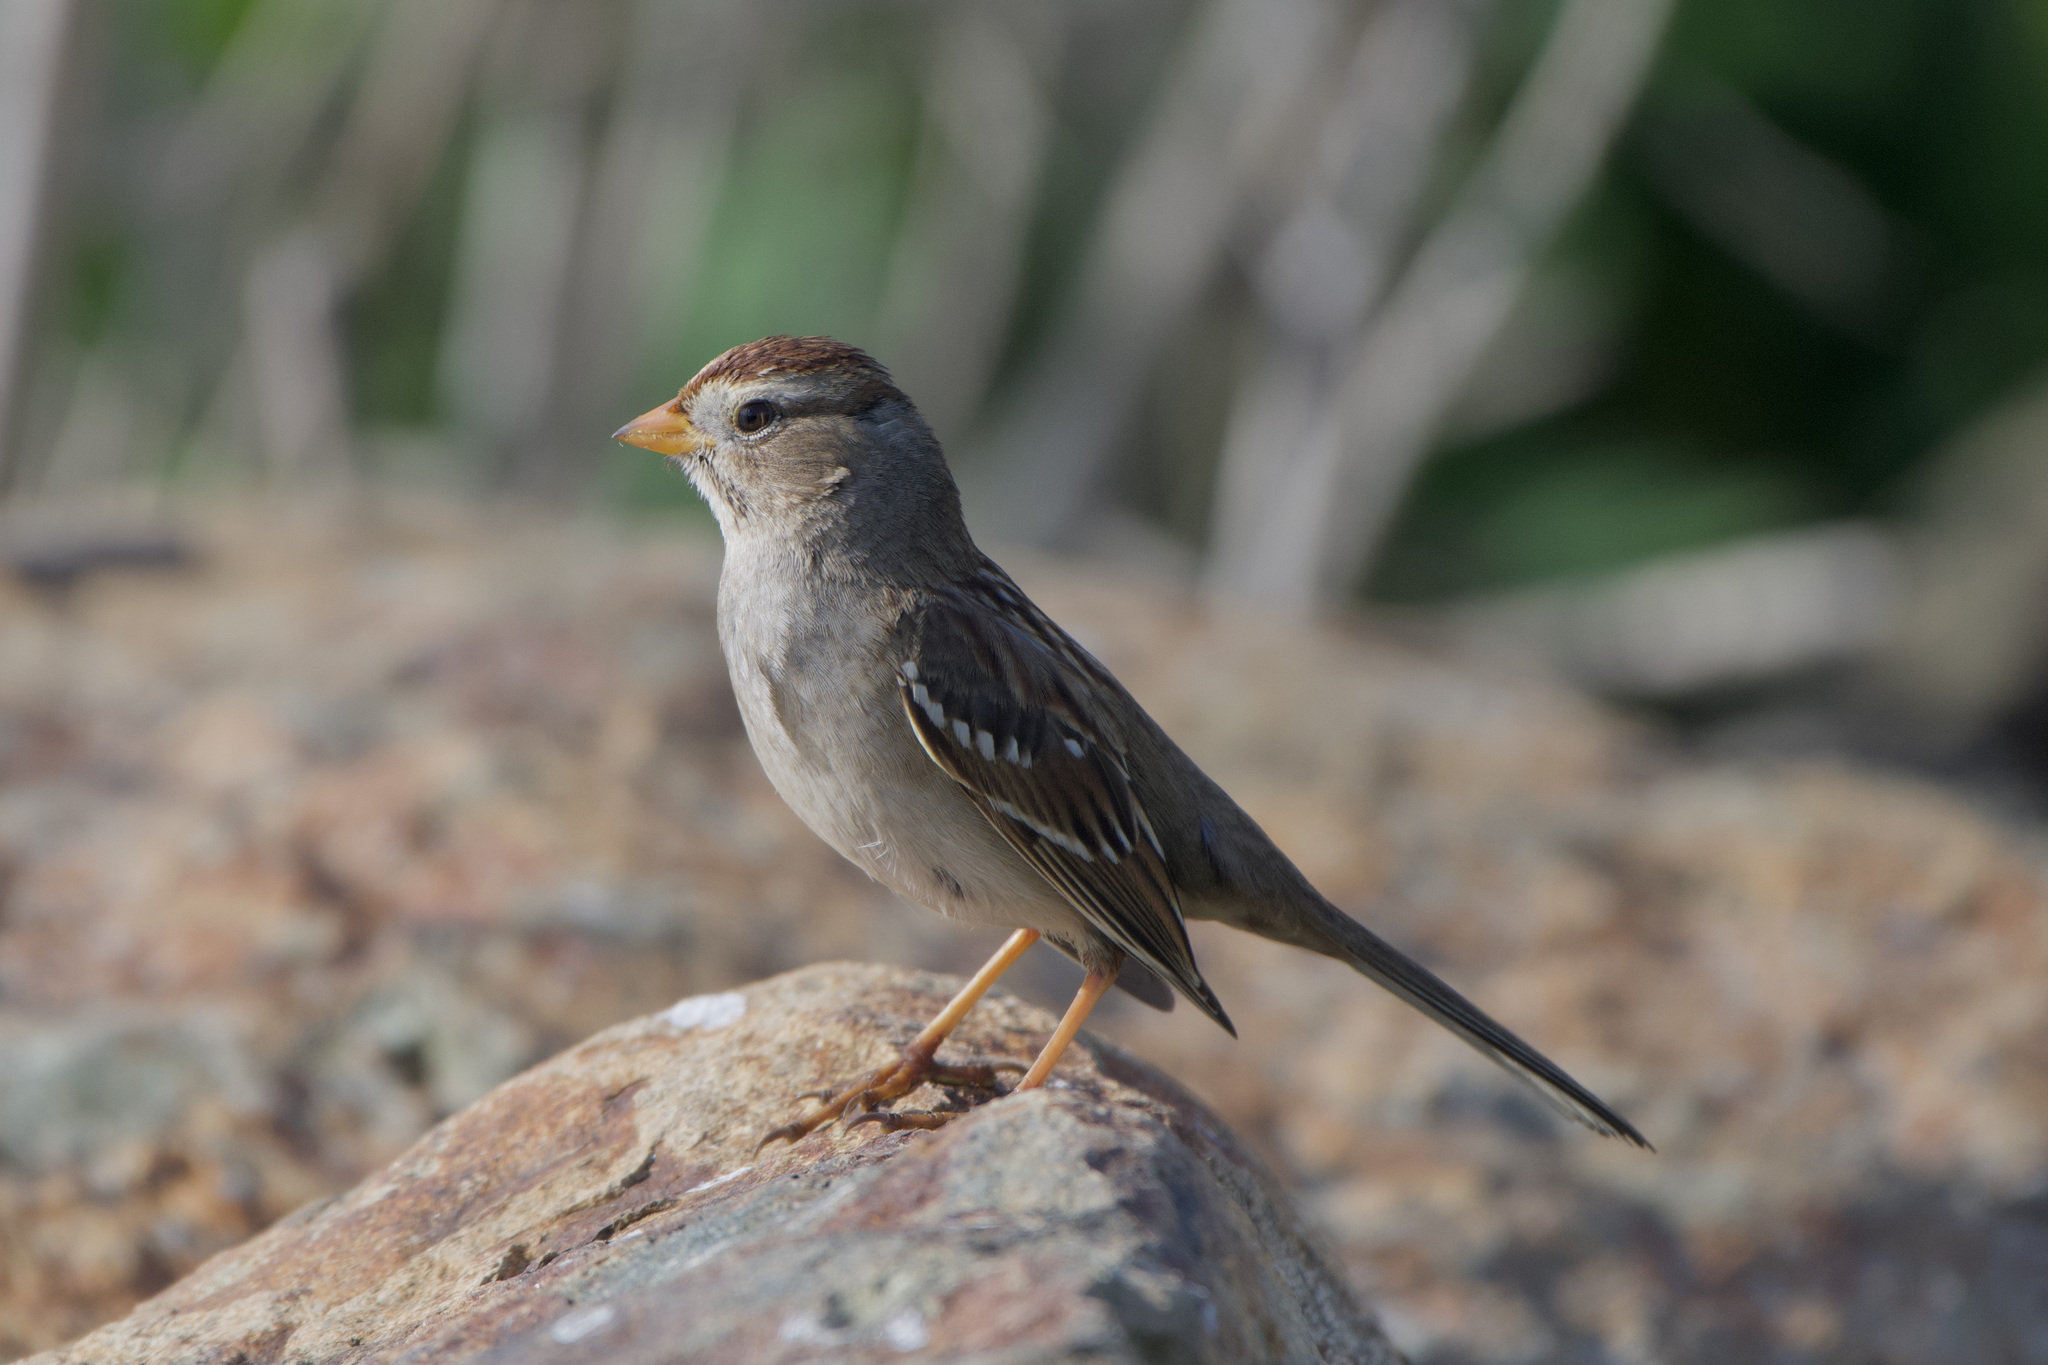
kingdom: Animalia
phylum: Chordata
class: Aves
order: Passeriformes
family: Passerellidae
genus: Zonotrichia
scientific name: Zonotrichia leucophrys
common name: White-crowned sparrow
